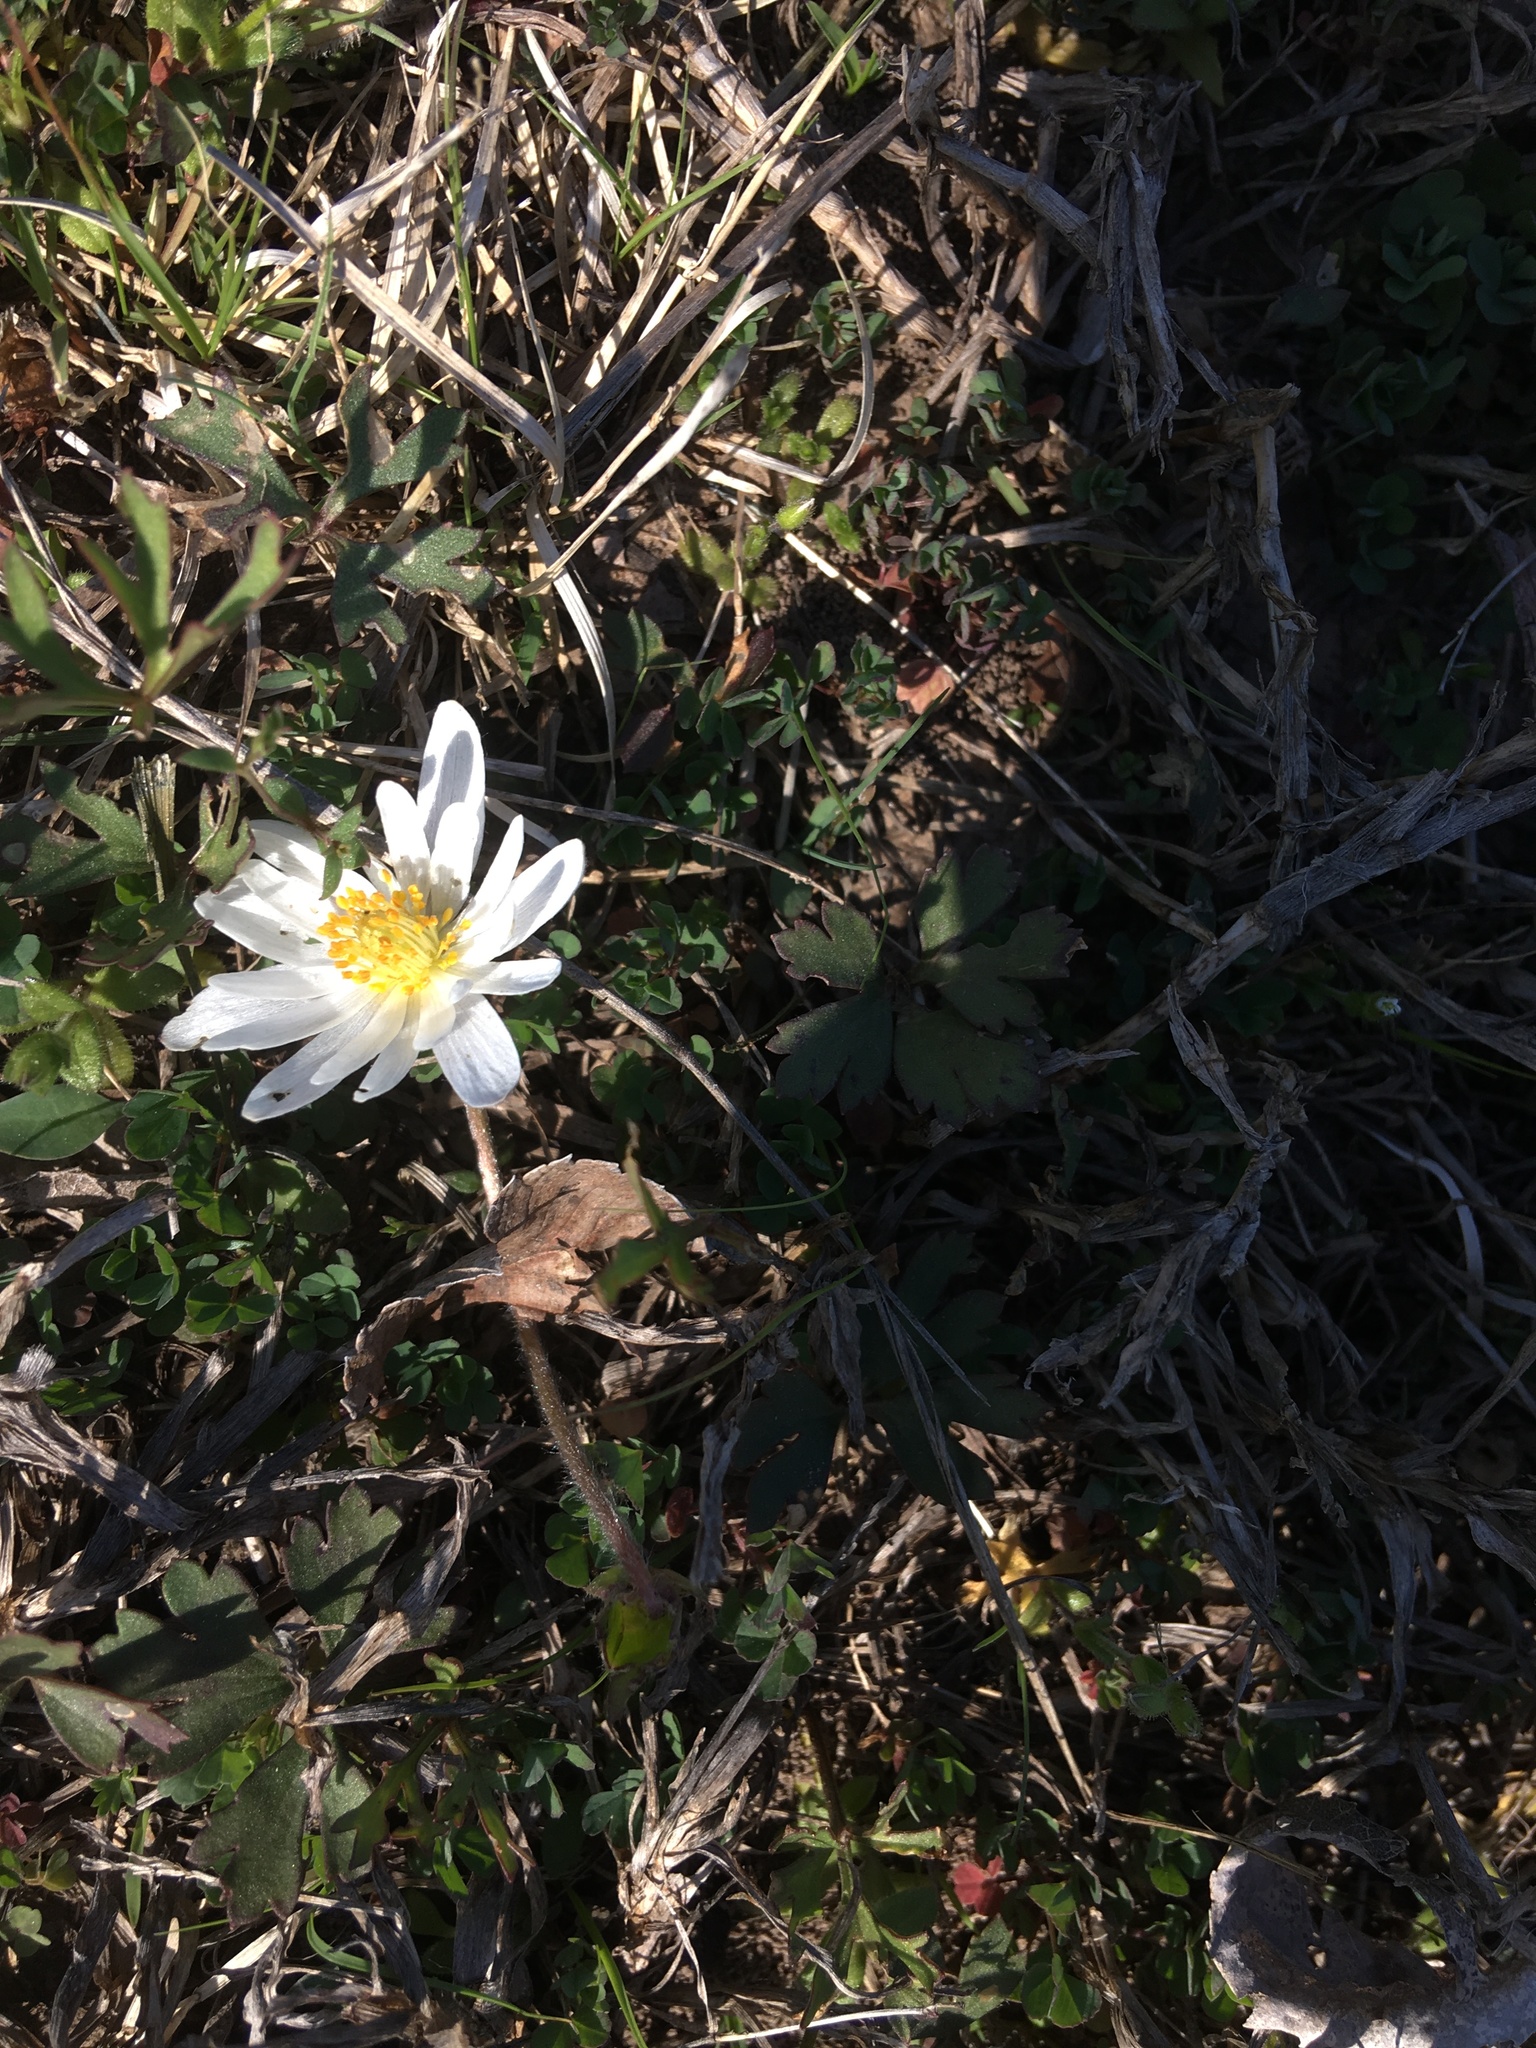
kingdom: Plantae
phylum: Tracheophyta
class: Magnoliopsida
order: Ranunculales
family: Ranunculaceae
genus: Anemone
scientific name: Anemone caroliniana
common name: Carolina anemone
